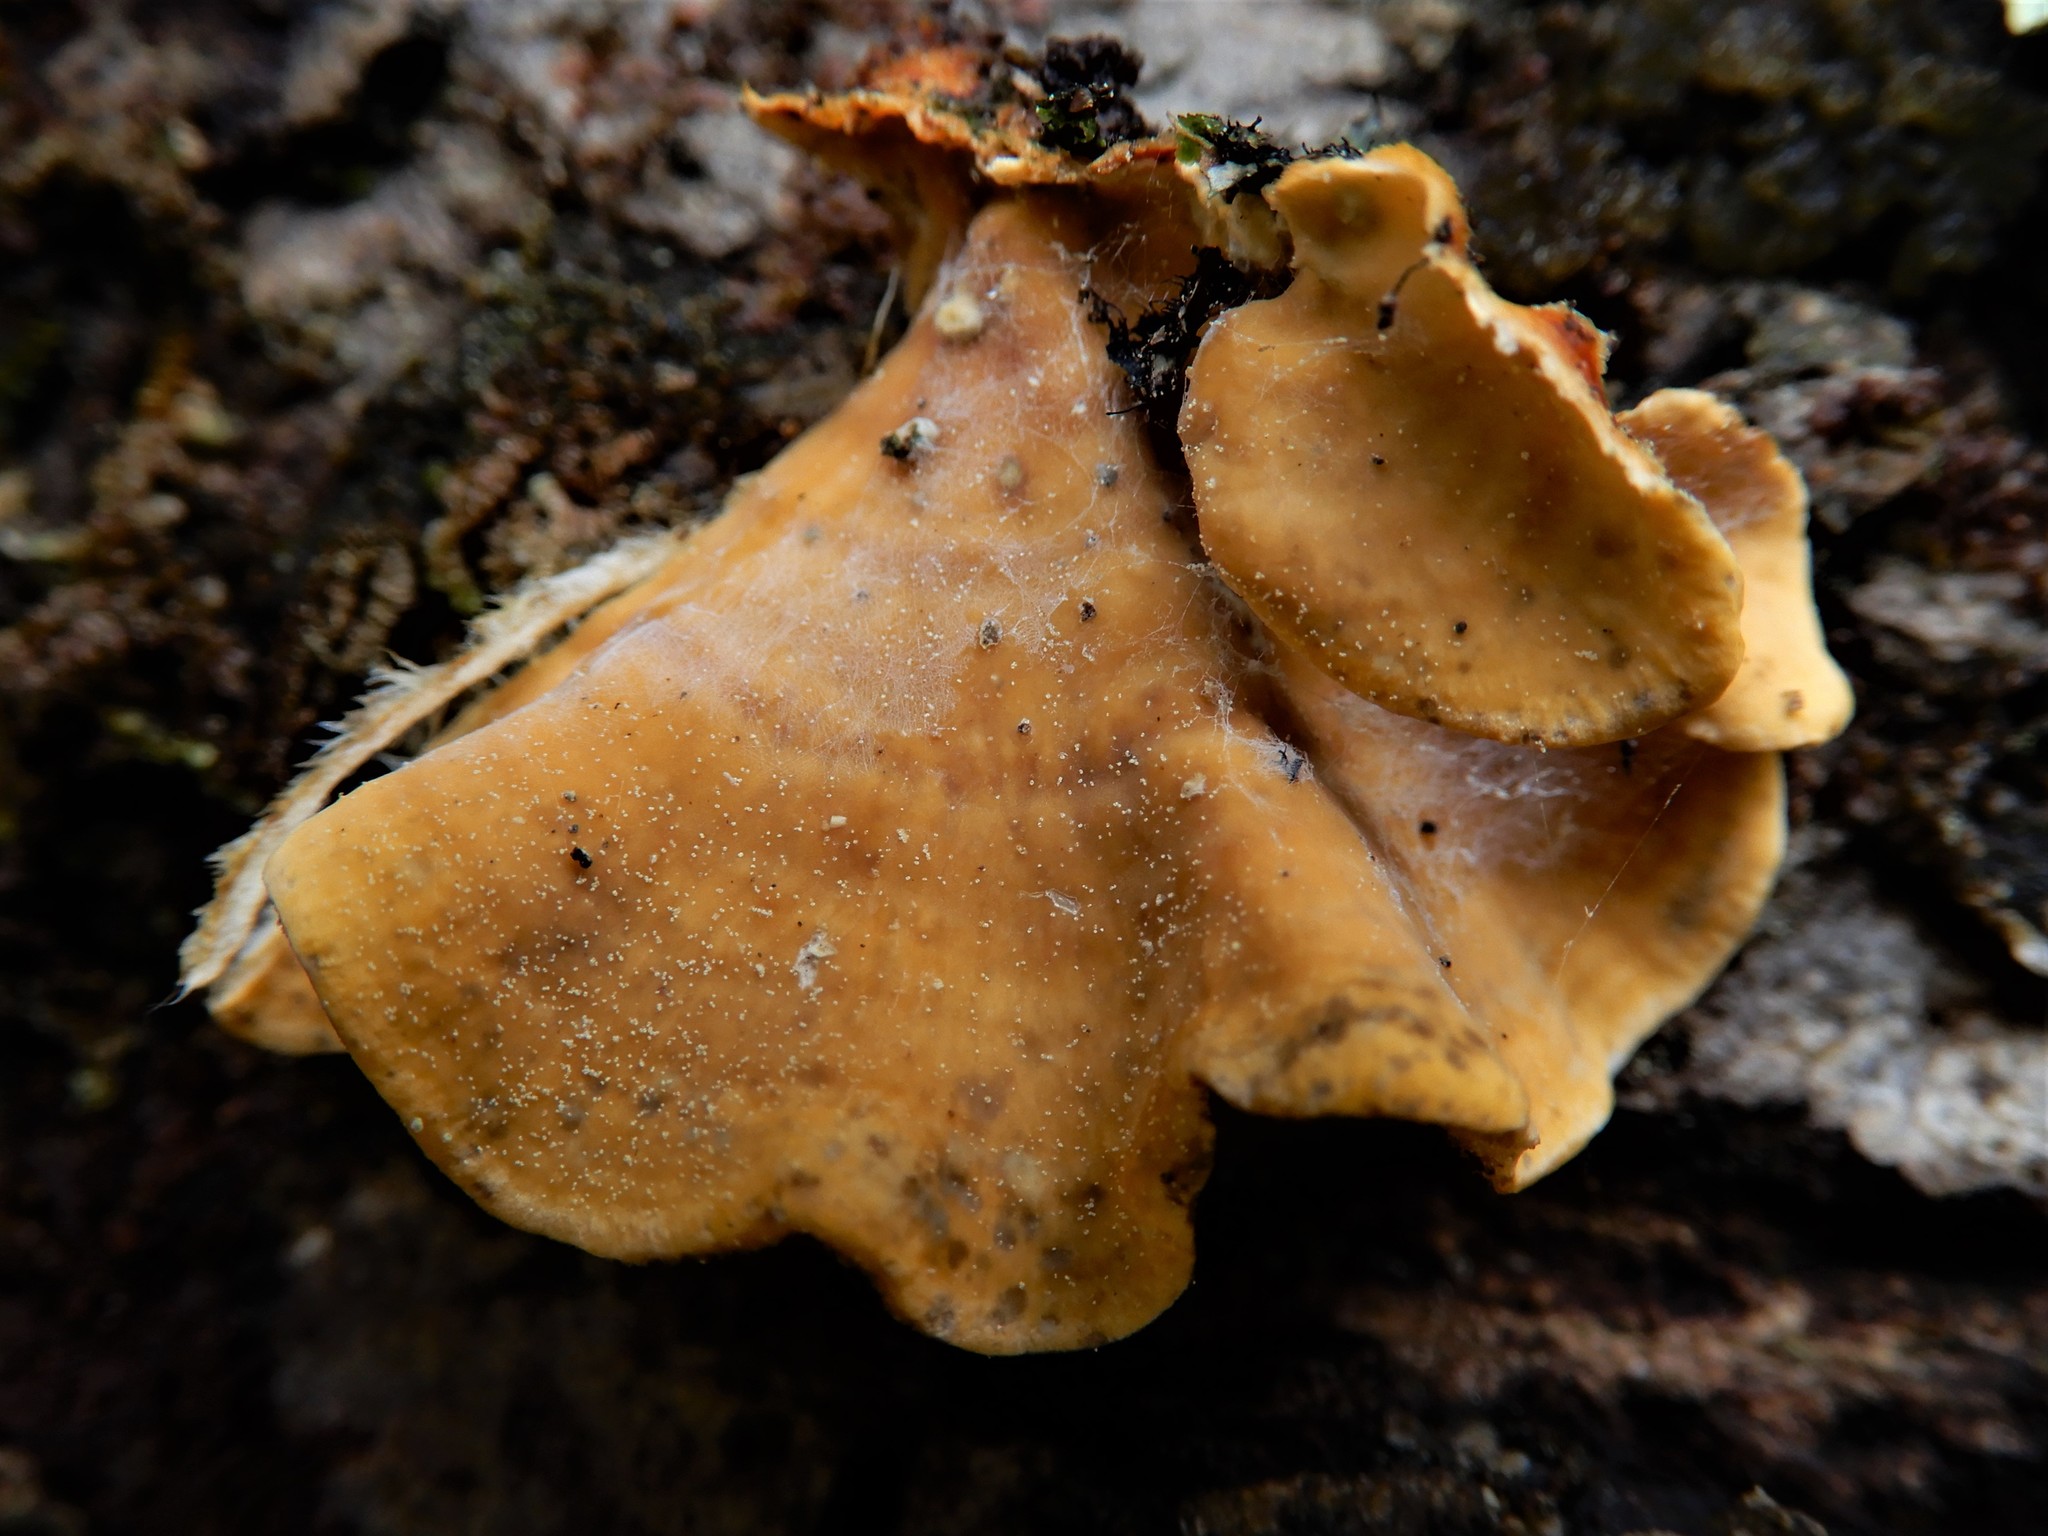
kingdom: Fungi
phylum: Basidiomycota
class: Agaricomycetes
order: Russulales
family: Stereaceae
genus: Stereum
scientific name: Stereum hirsutum
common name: Hairy curtain crust
